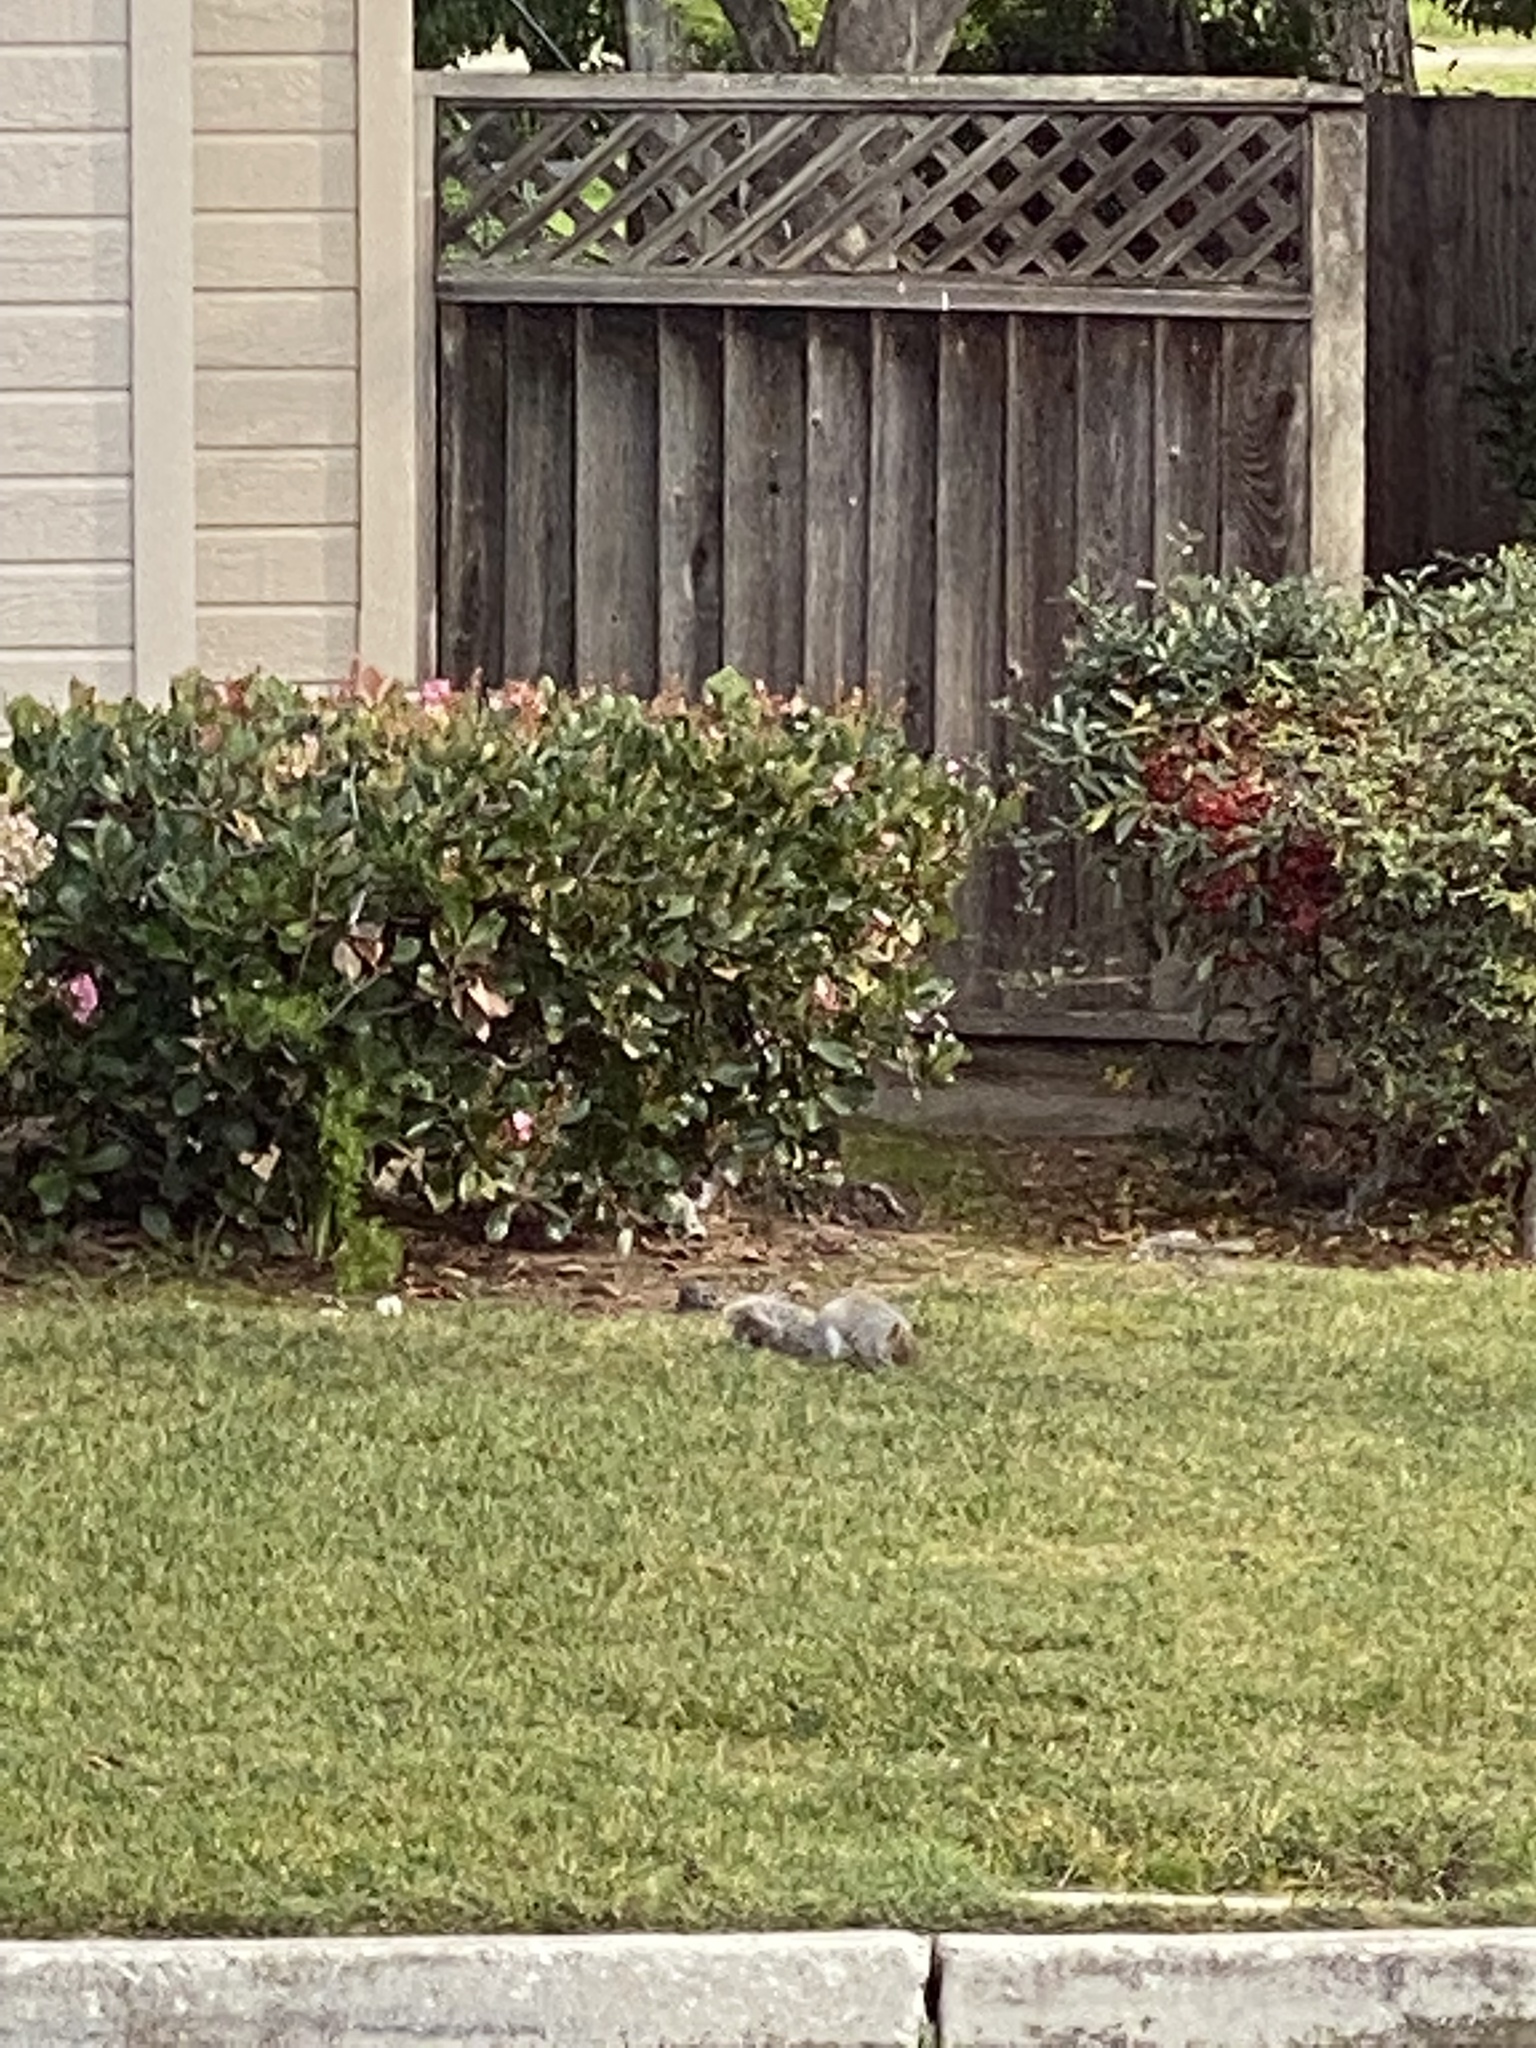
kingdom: Animalia
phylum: Chordata
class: Mammalia
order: Rodentia
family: Sciuridae
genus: Sciurus
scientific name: Sciurus carolinensis
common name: Eastern gray squirrel
